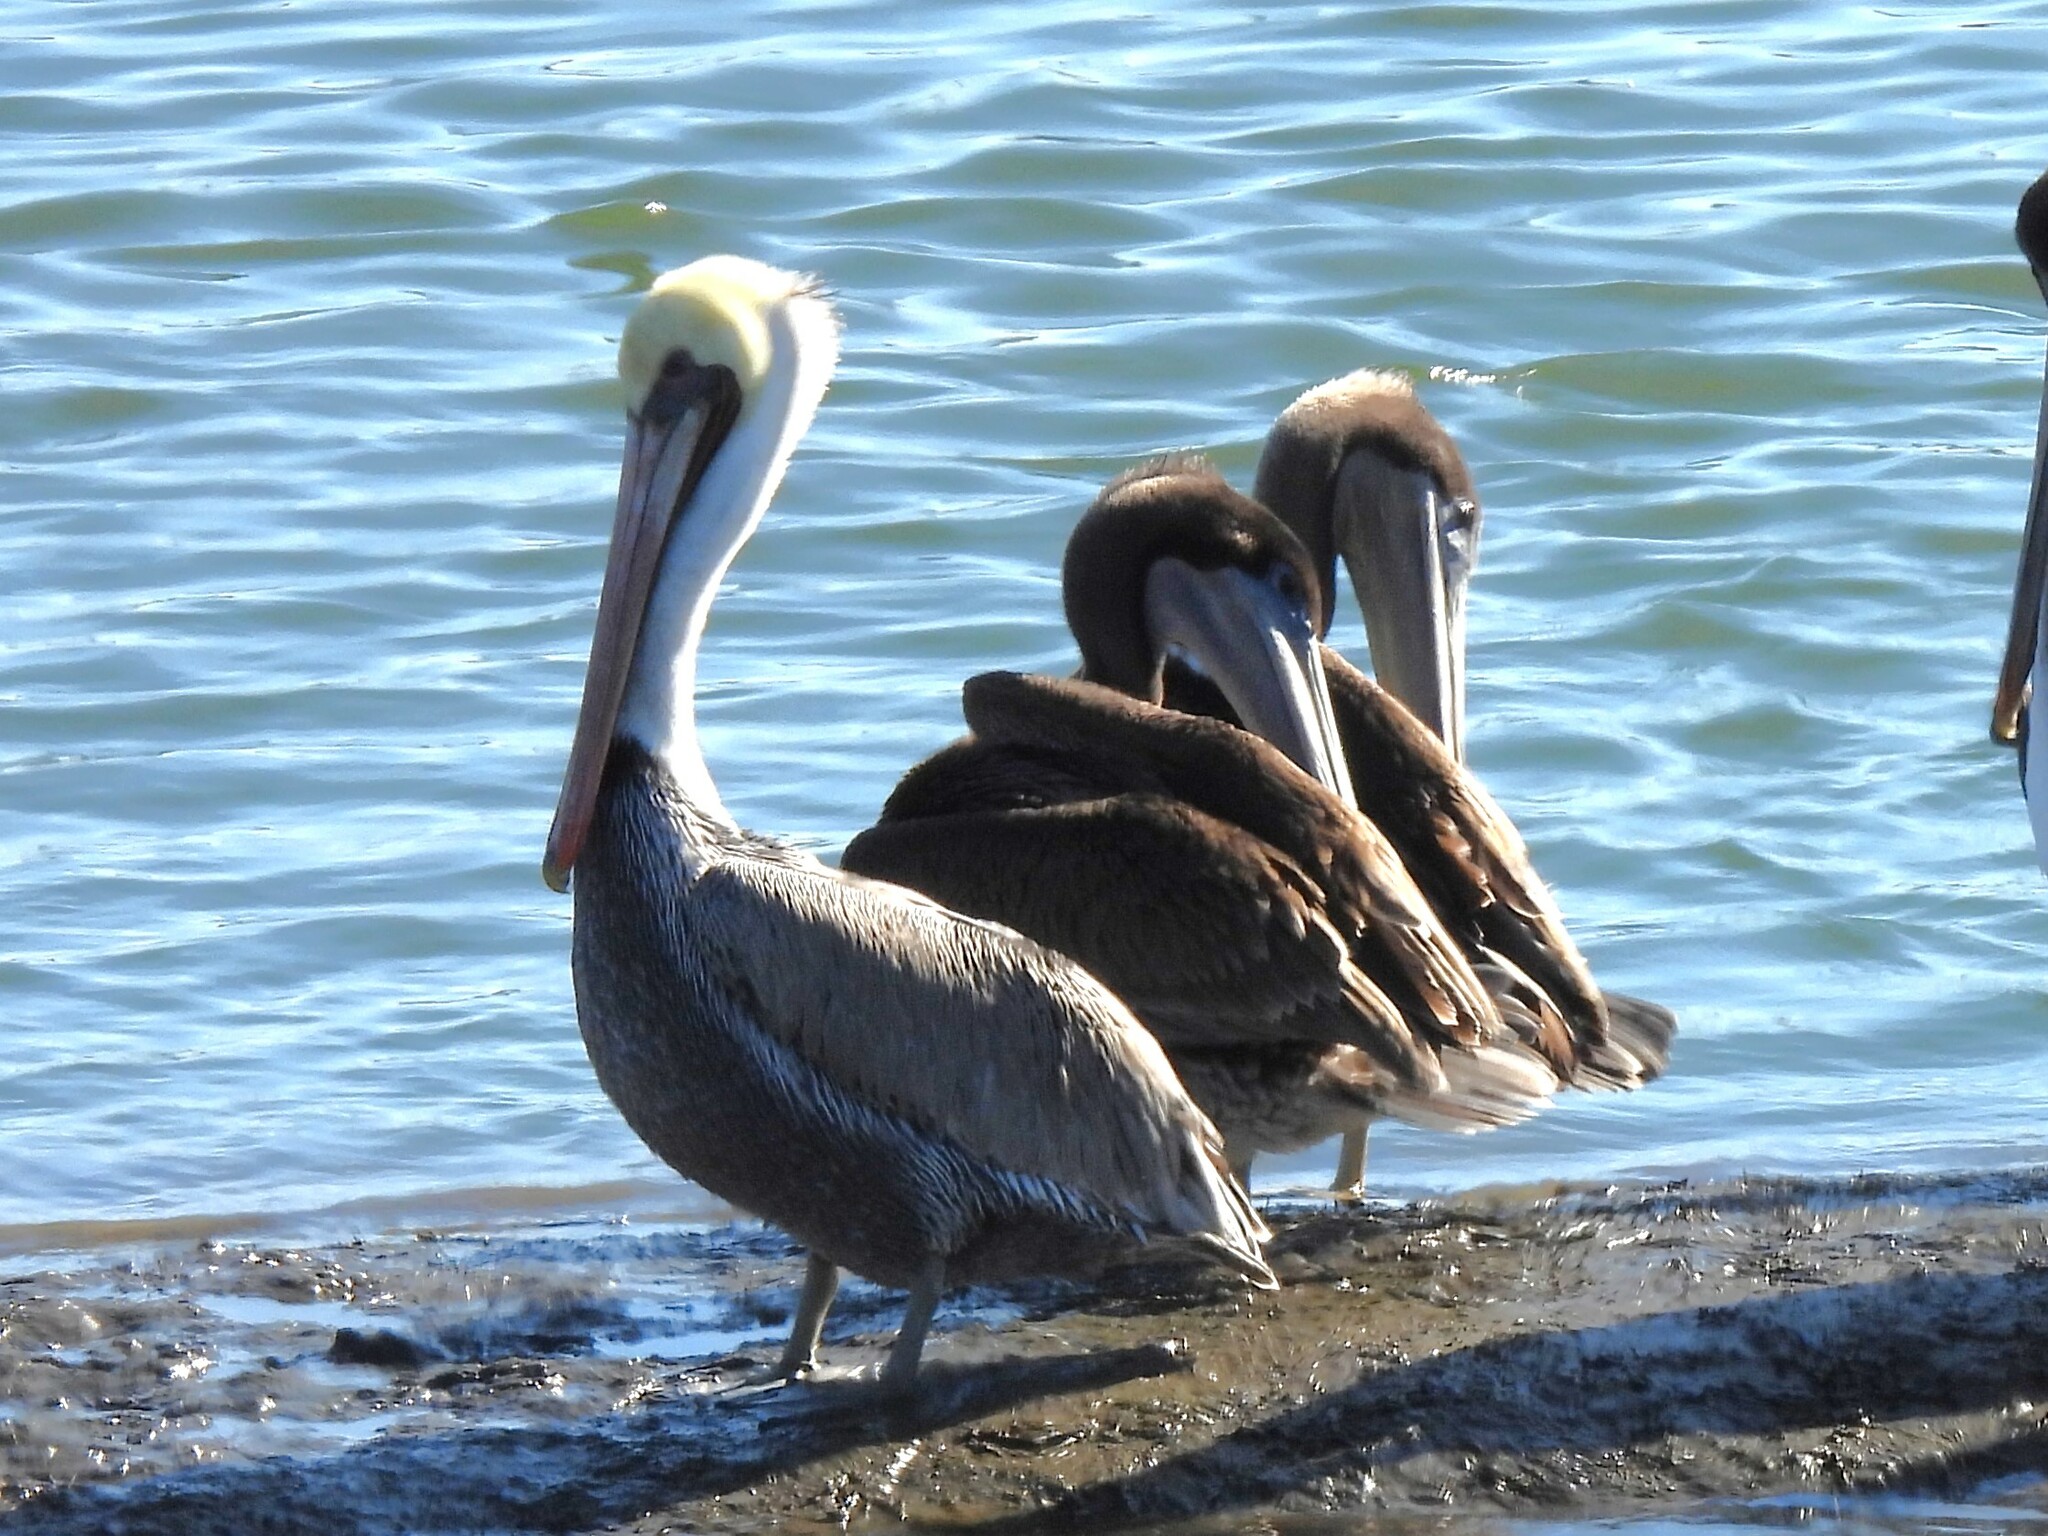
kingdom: Animalia
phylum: Chordata
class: Aves
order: Pelecaniformes
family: Pelecanidae
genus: Pelecanus
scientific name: Pelecanus occidentalis
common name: Brown pelican
